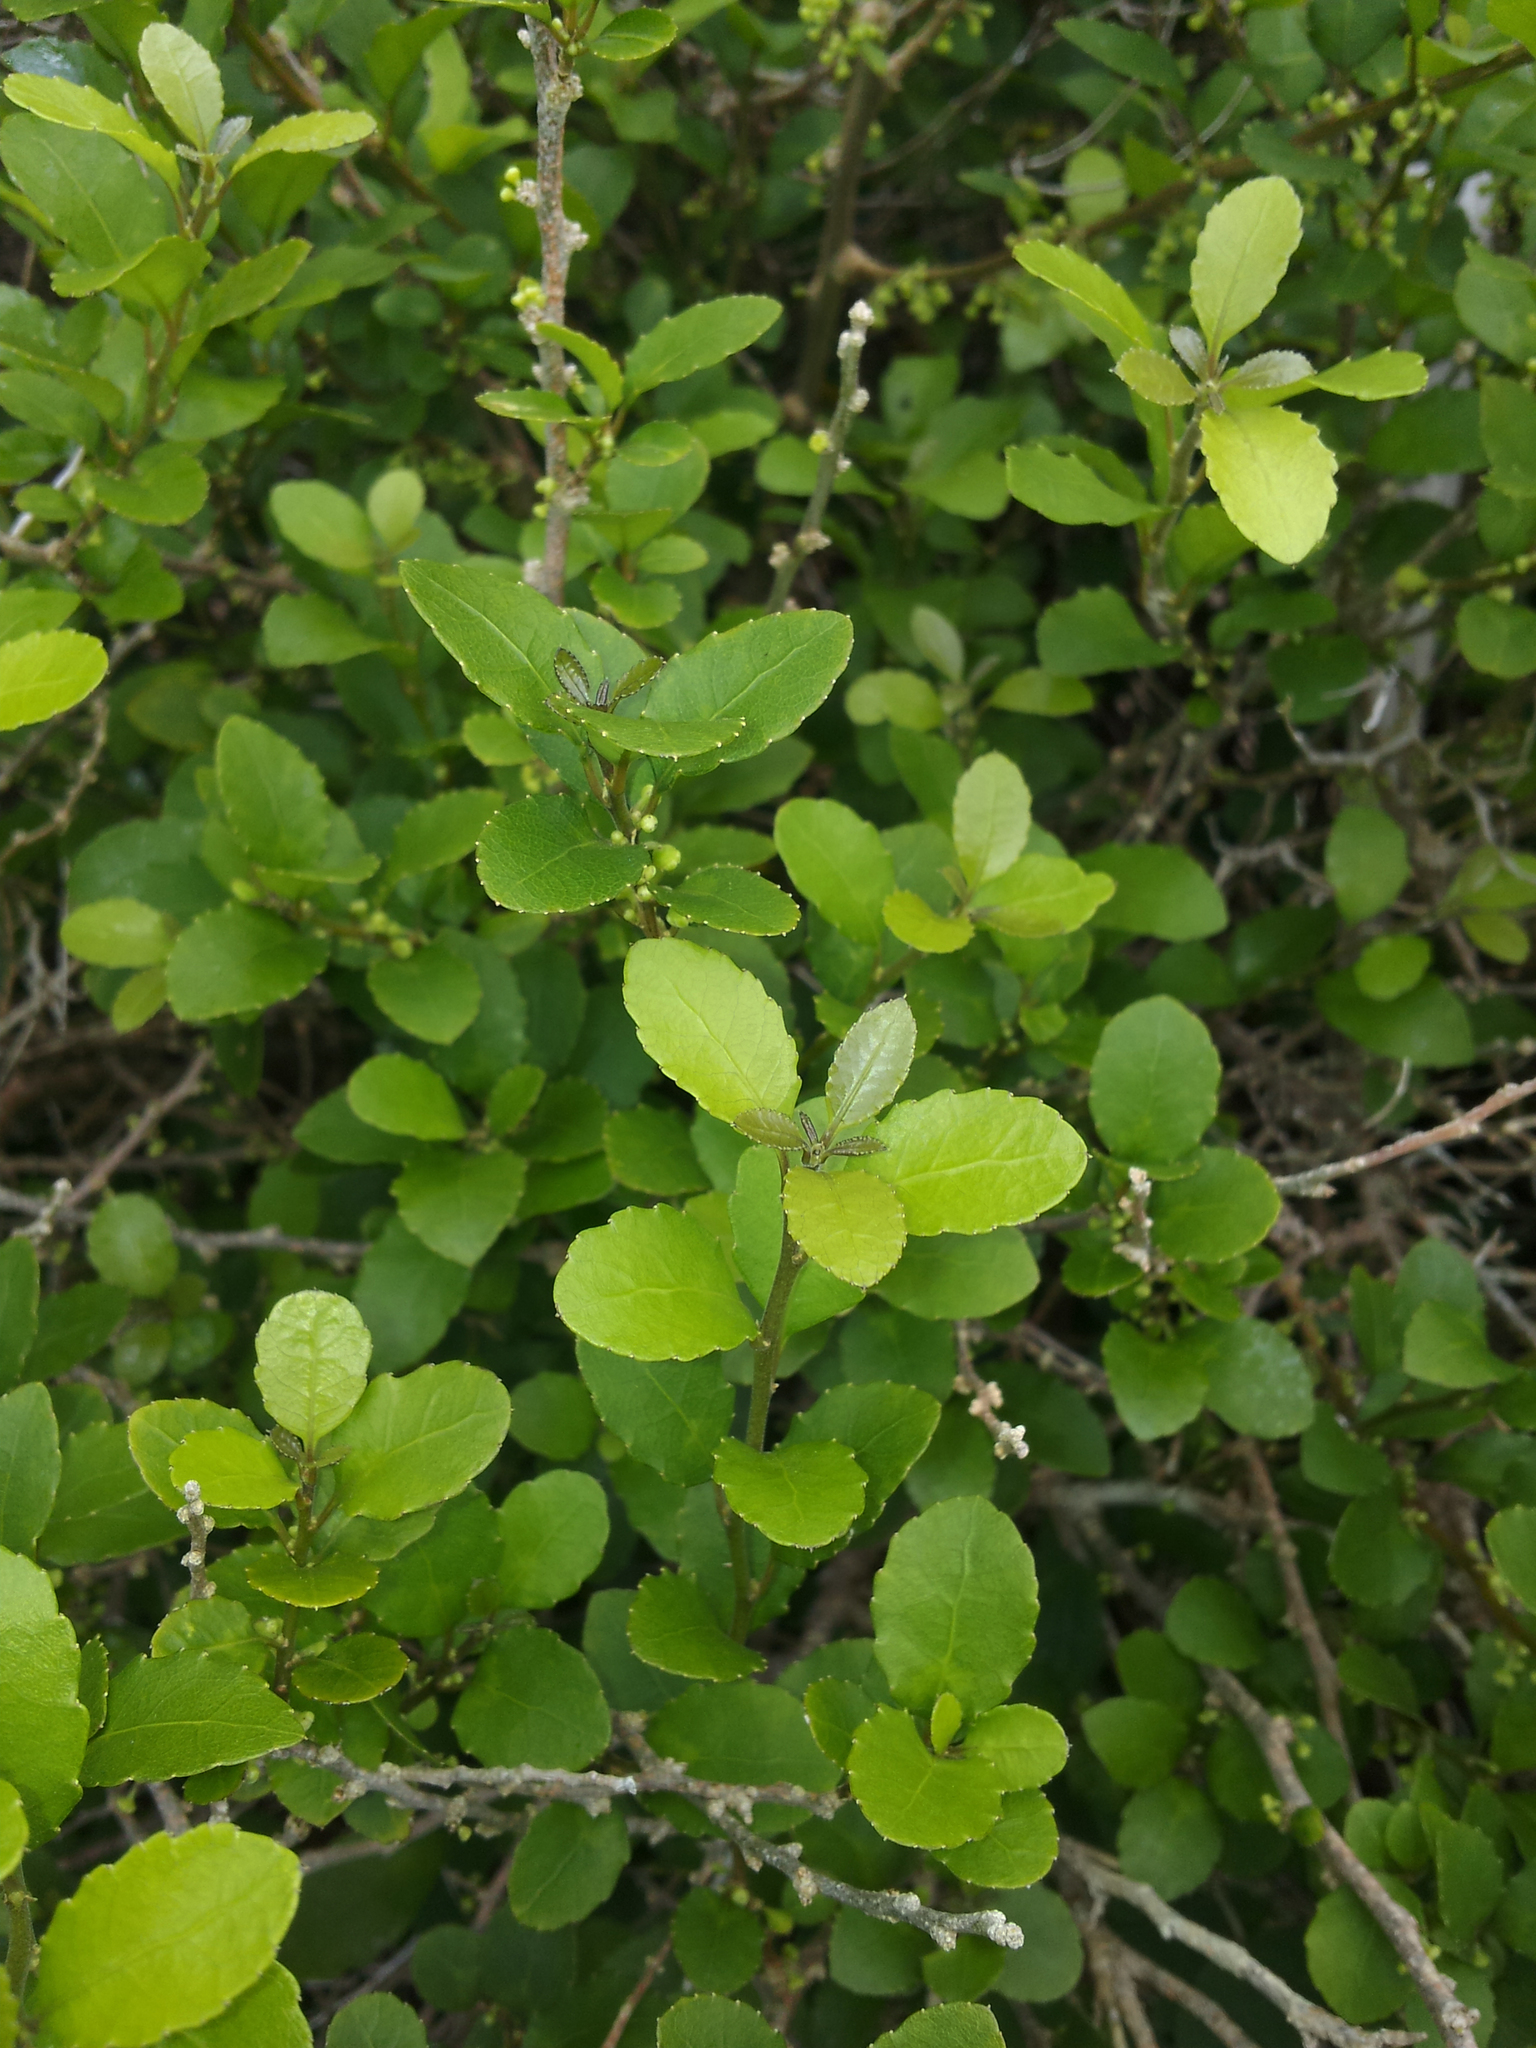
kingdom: Plantae
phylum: Tracheophyta
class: Magnoliopsida
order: Malpighiales
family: Violaceae
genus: Melicytus
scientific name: Melicytus
